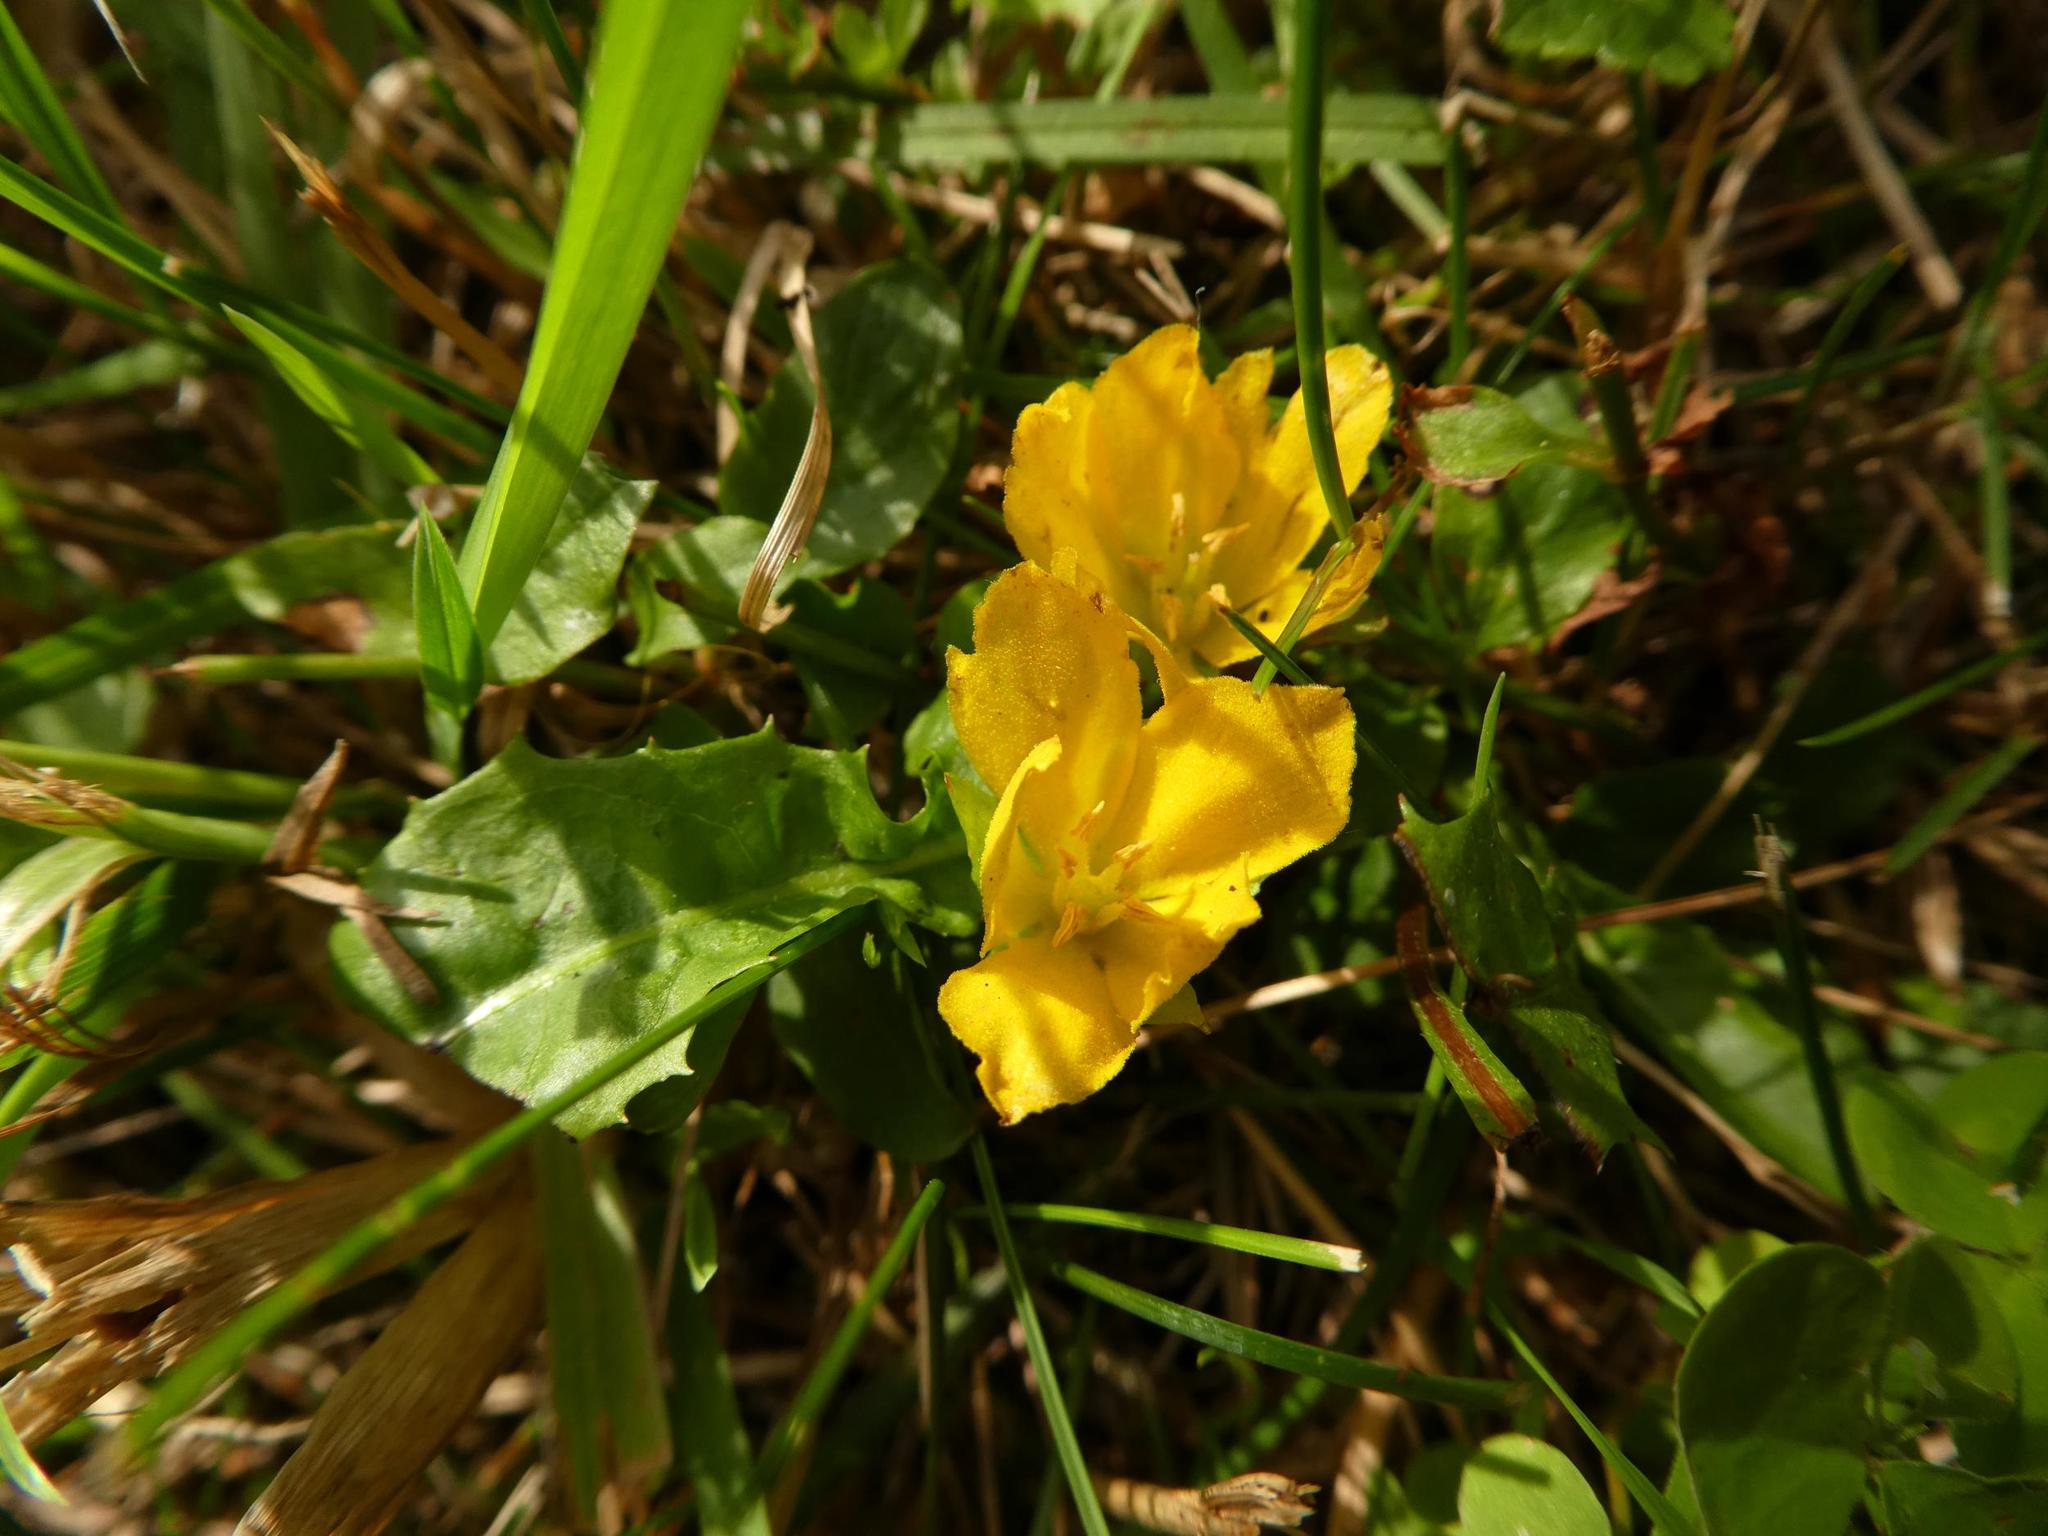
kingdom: Plantae
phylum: Tracheophyta
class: Magnoliopsida
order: Ericales
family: Primulaceae
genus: Lysimachia
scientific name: Lysimachia nummularia
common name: Moneywort
